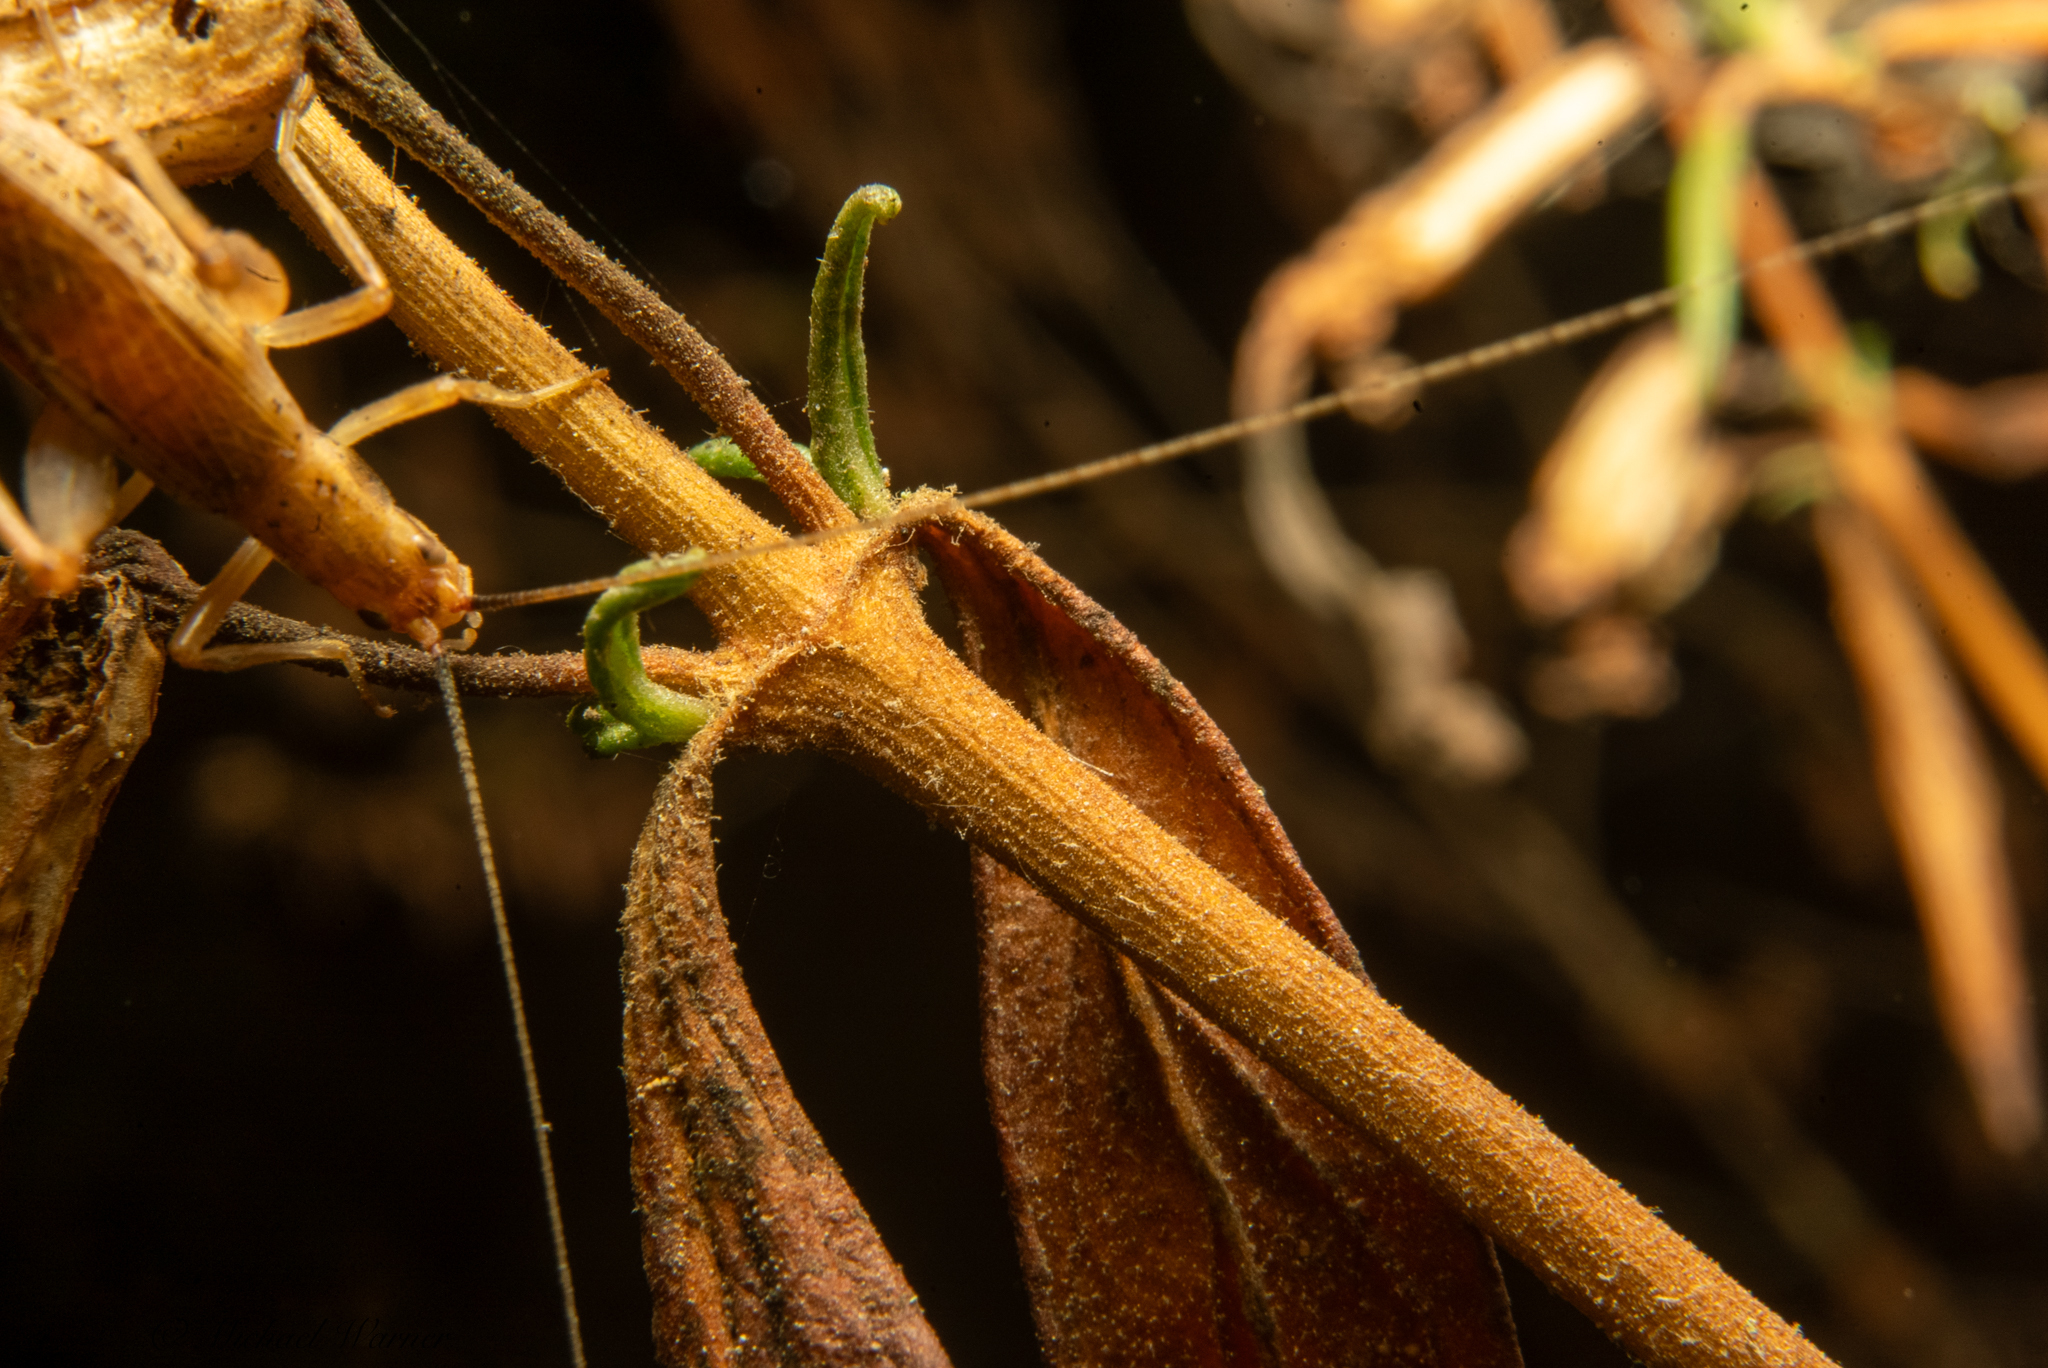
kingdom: Animalia
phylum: Arthropoda
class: Insecta
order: Orthoptera
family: Gryllidae
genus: Oecanthus
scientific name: Oecanthus californicus
